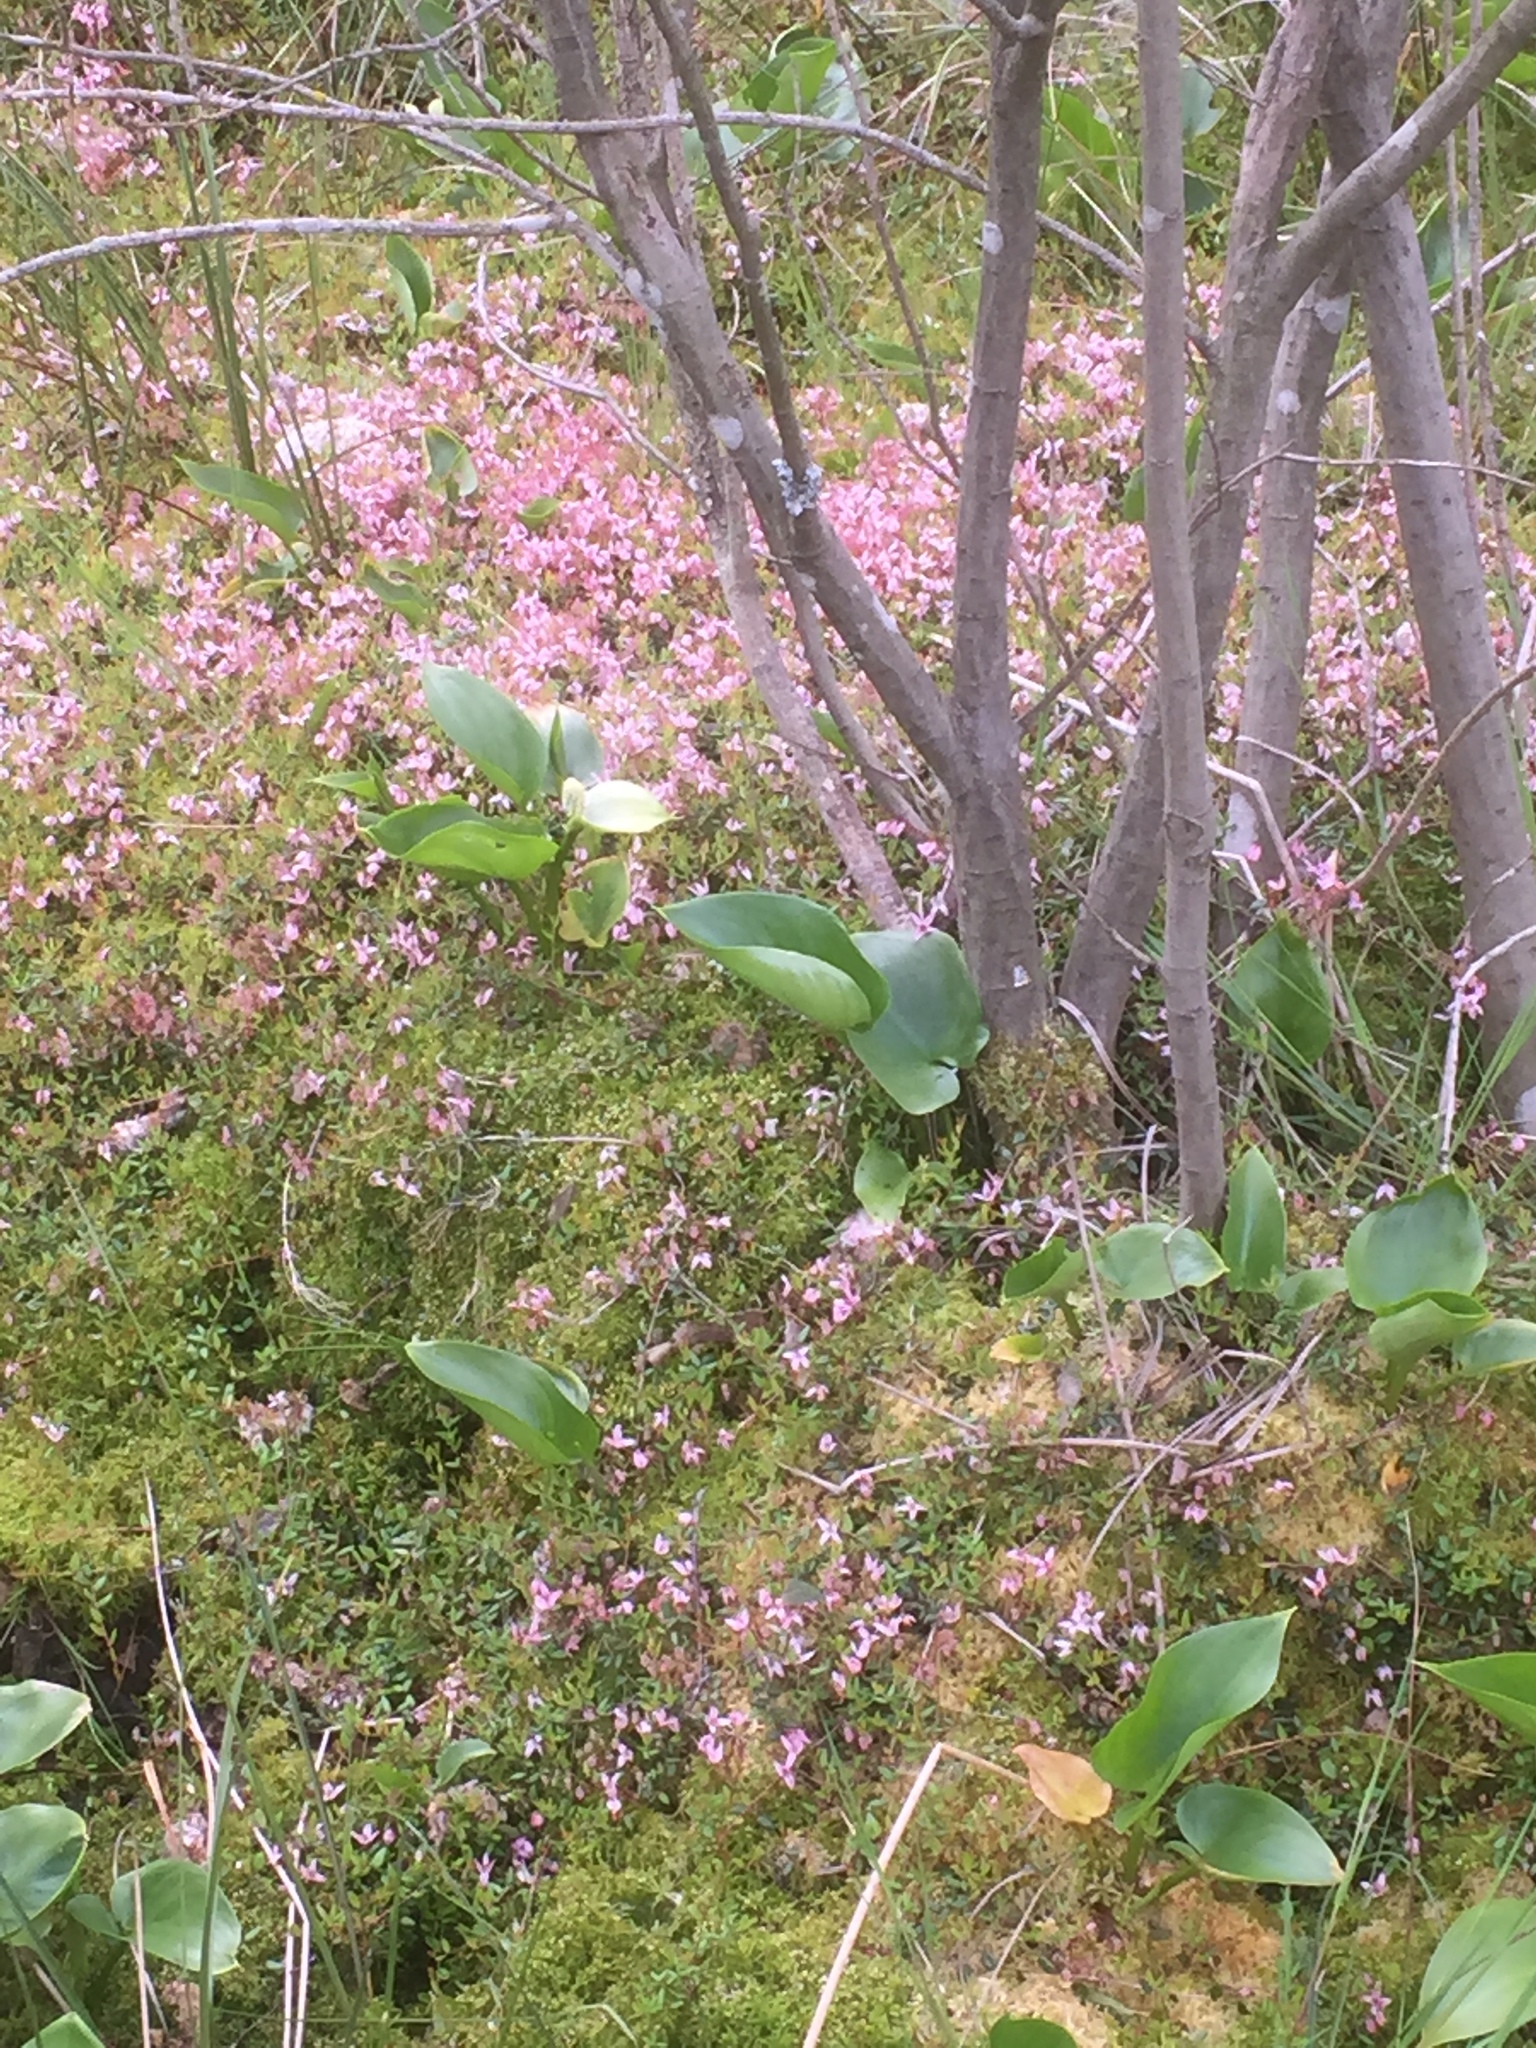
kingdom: Plantae
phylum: Tracheophyta
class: Magnoliopsida
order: Ericales
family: Ericaceae
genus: Vaccinium
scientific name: Vaccinium oxycoccos
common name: Cranberry
